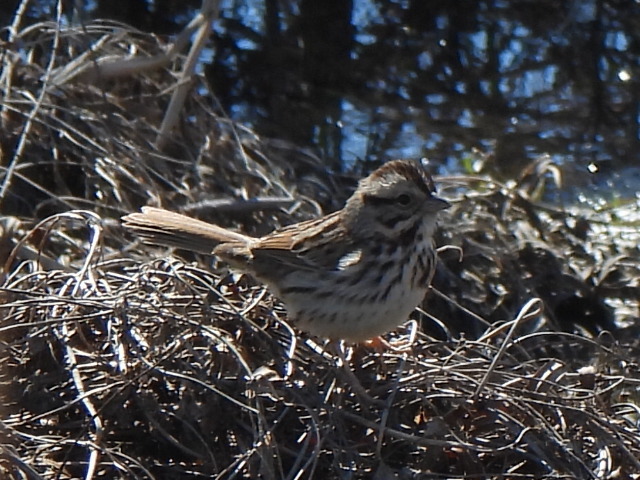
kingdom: Animalia
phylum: Chordata
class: Aves
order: Passeriformes
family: Passerellidae
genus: Melospiza
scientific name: Melospiza lincolnii
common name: Lincoln's sparrow
